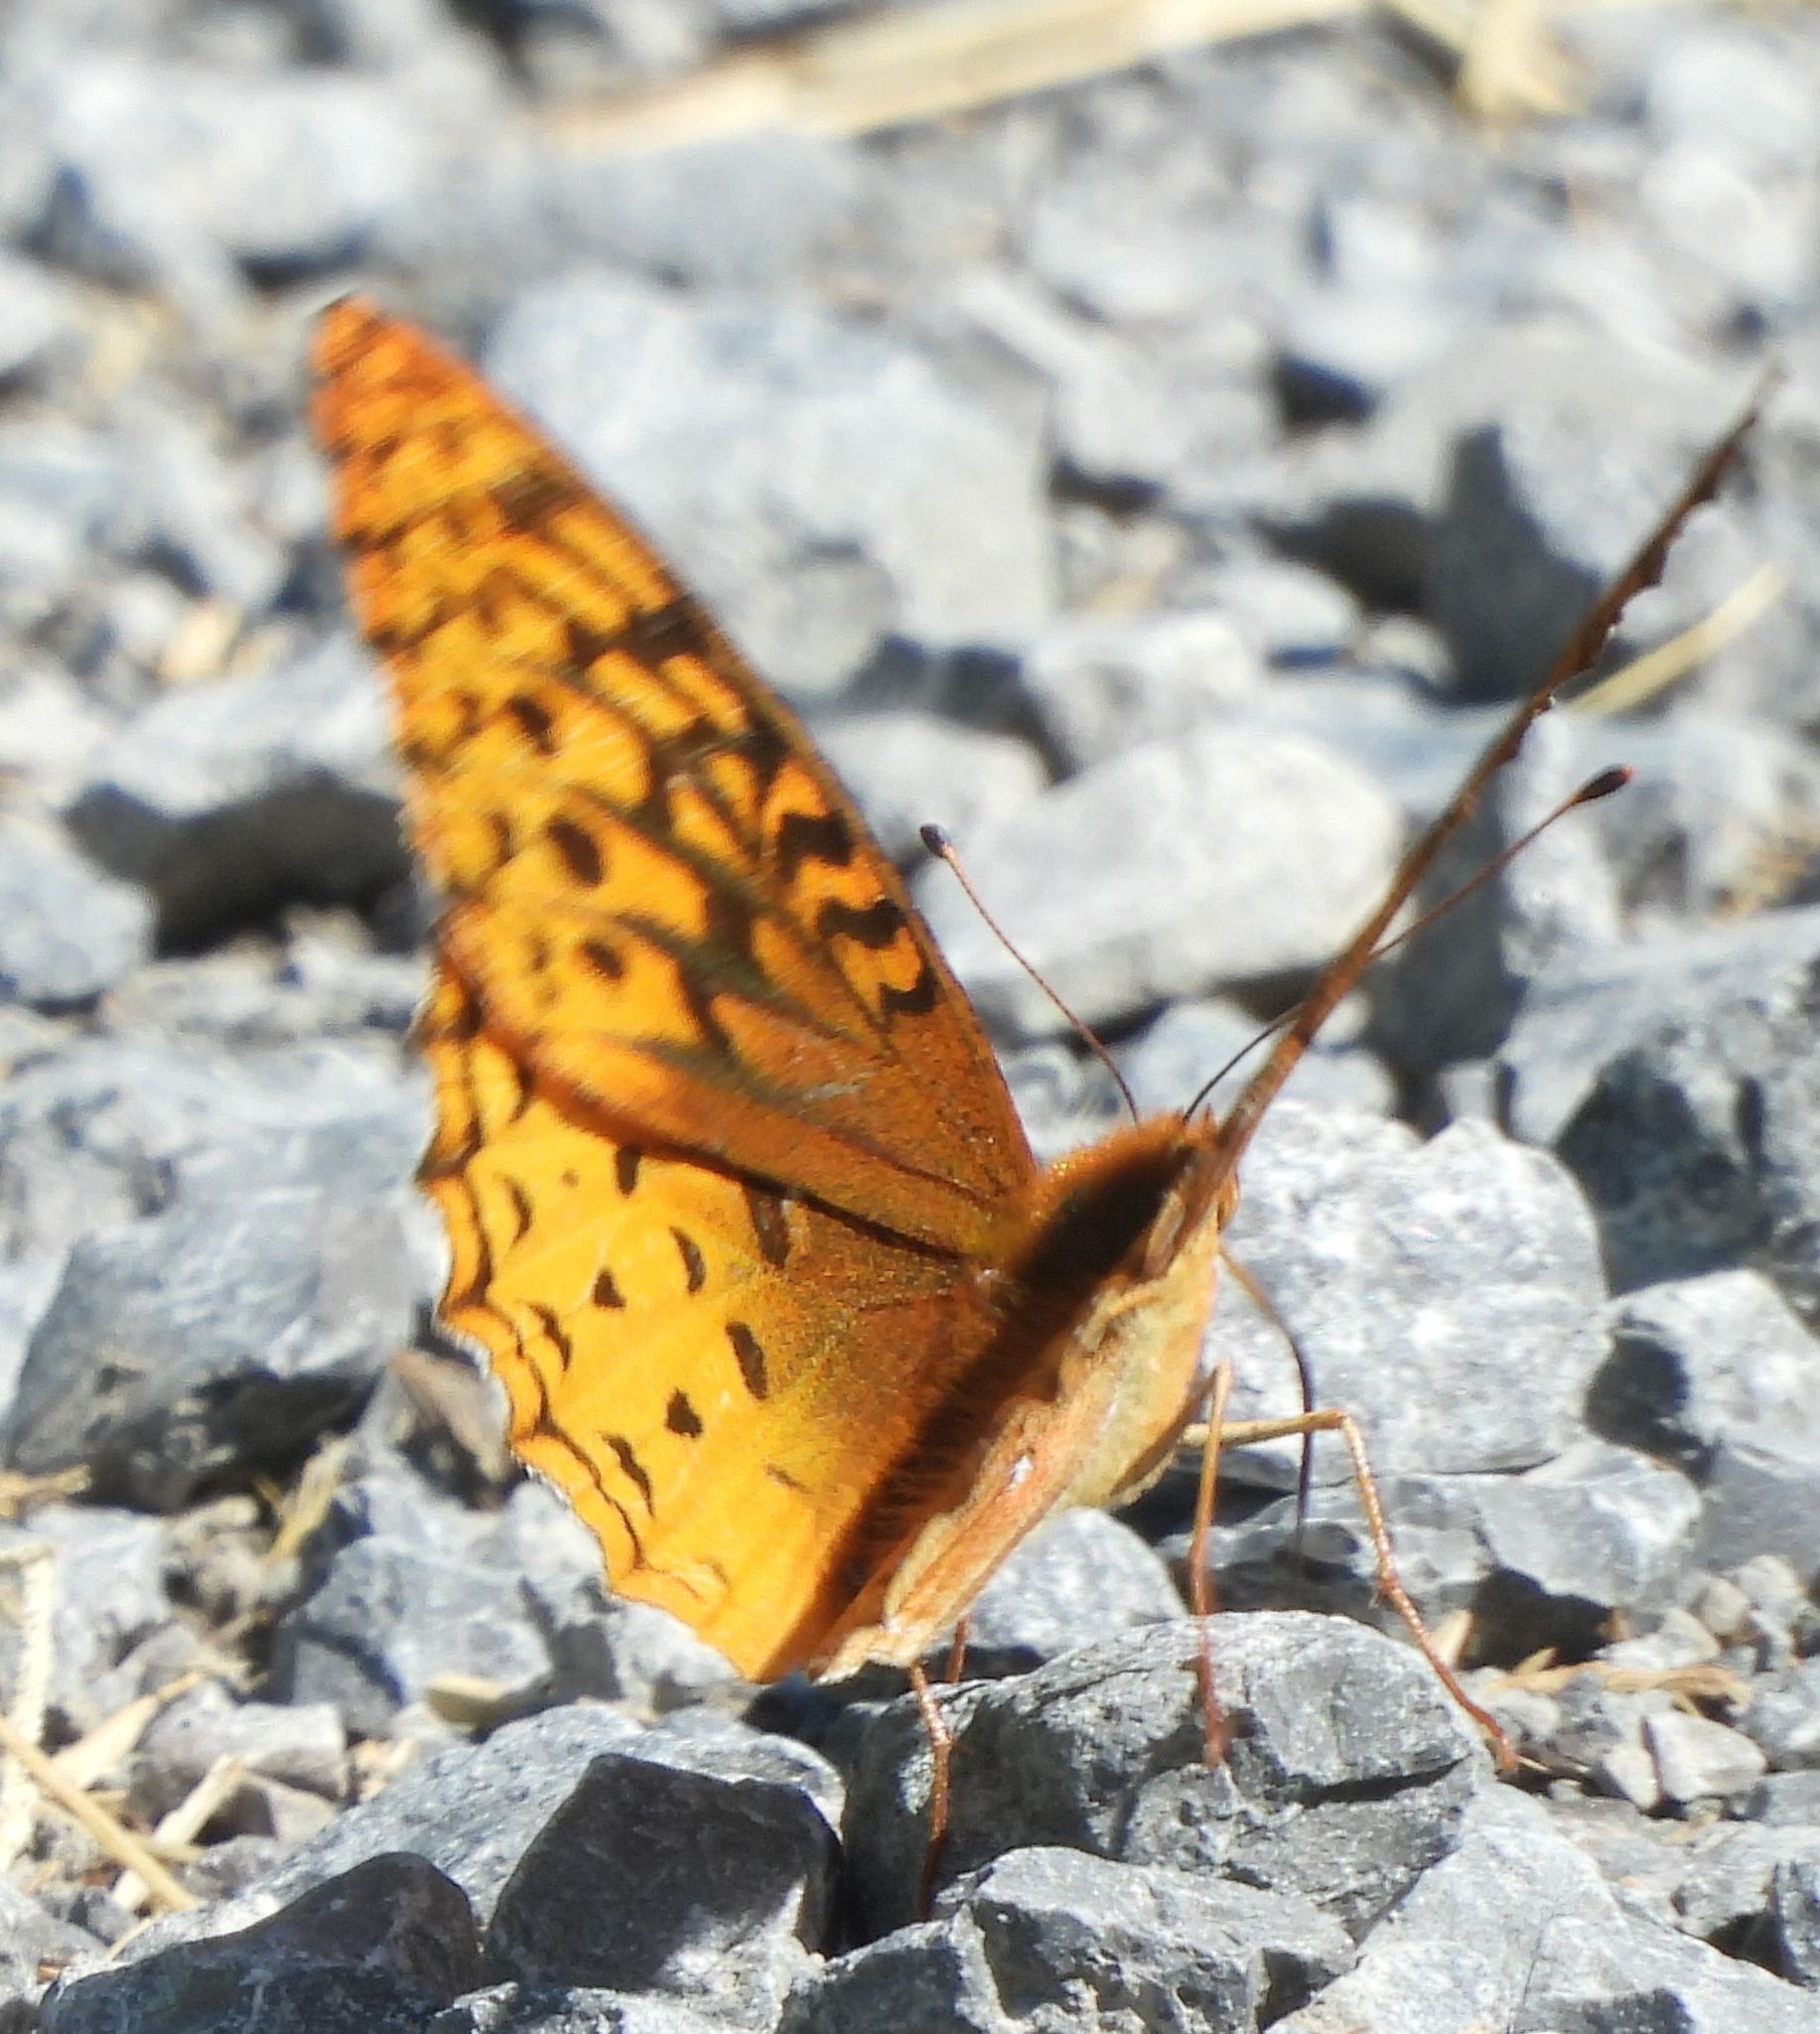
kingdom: Animalia
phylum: Arthropoda
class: Insecta
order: Lepidoptera
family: Nymphalidae
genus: Speyeria
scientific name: Speyeria cybele
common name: Great spangled fritillary
